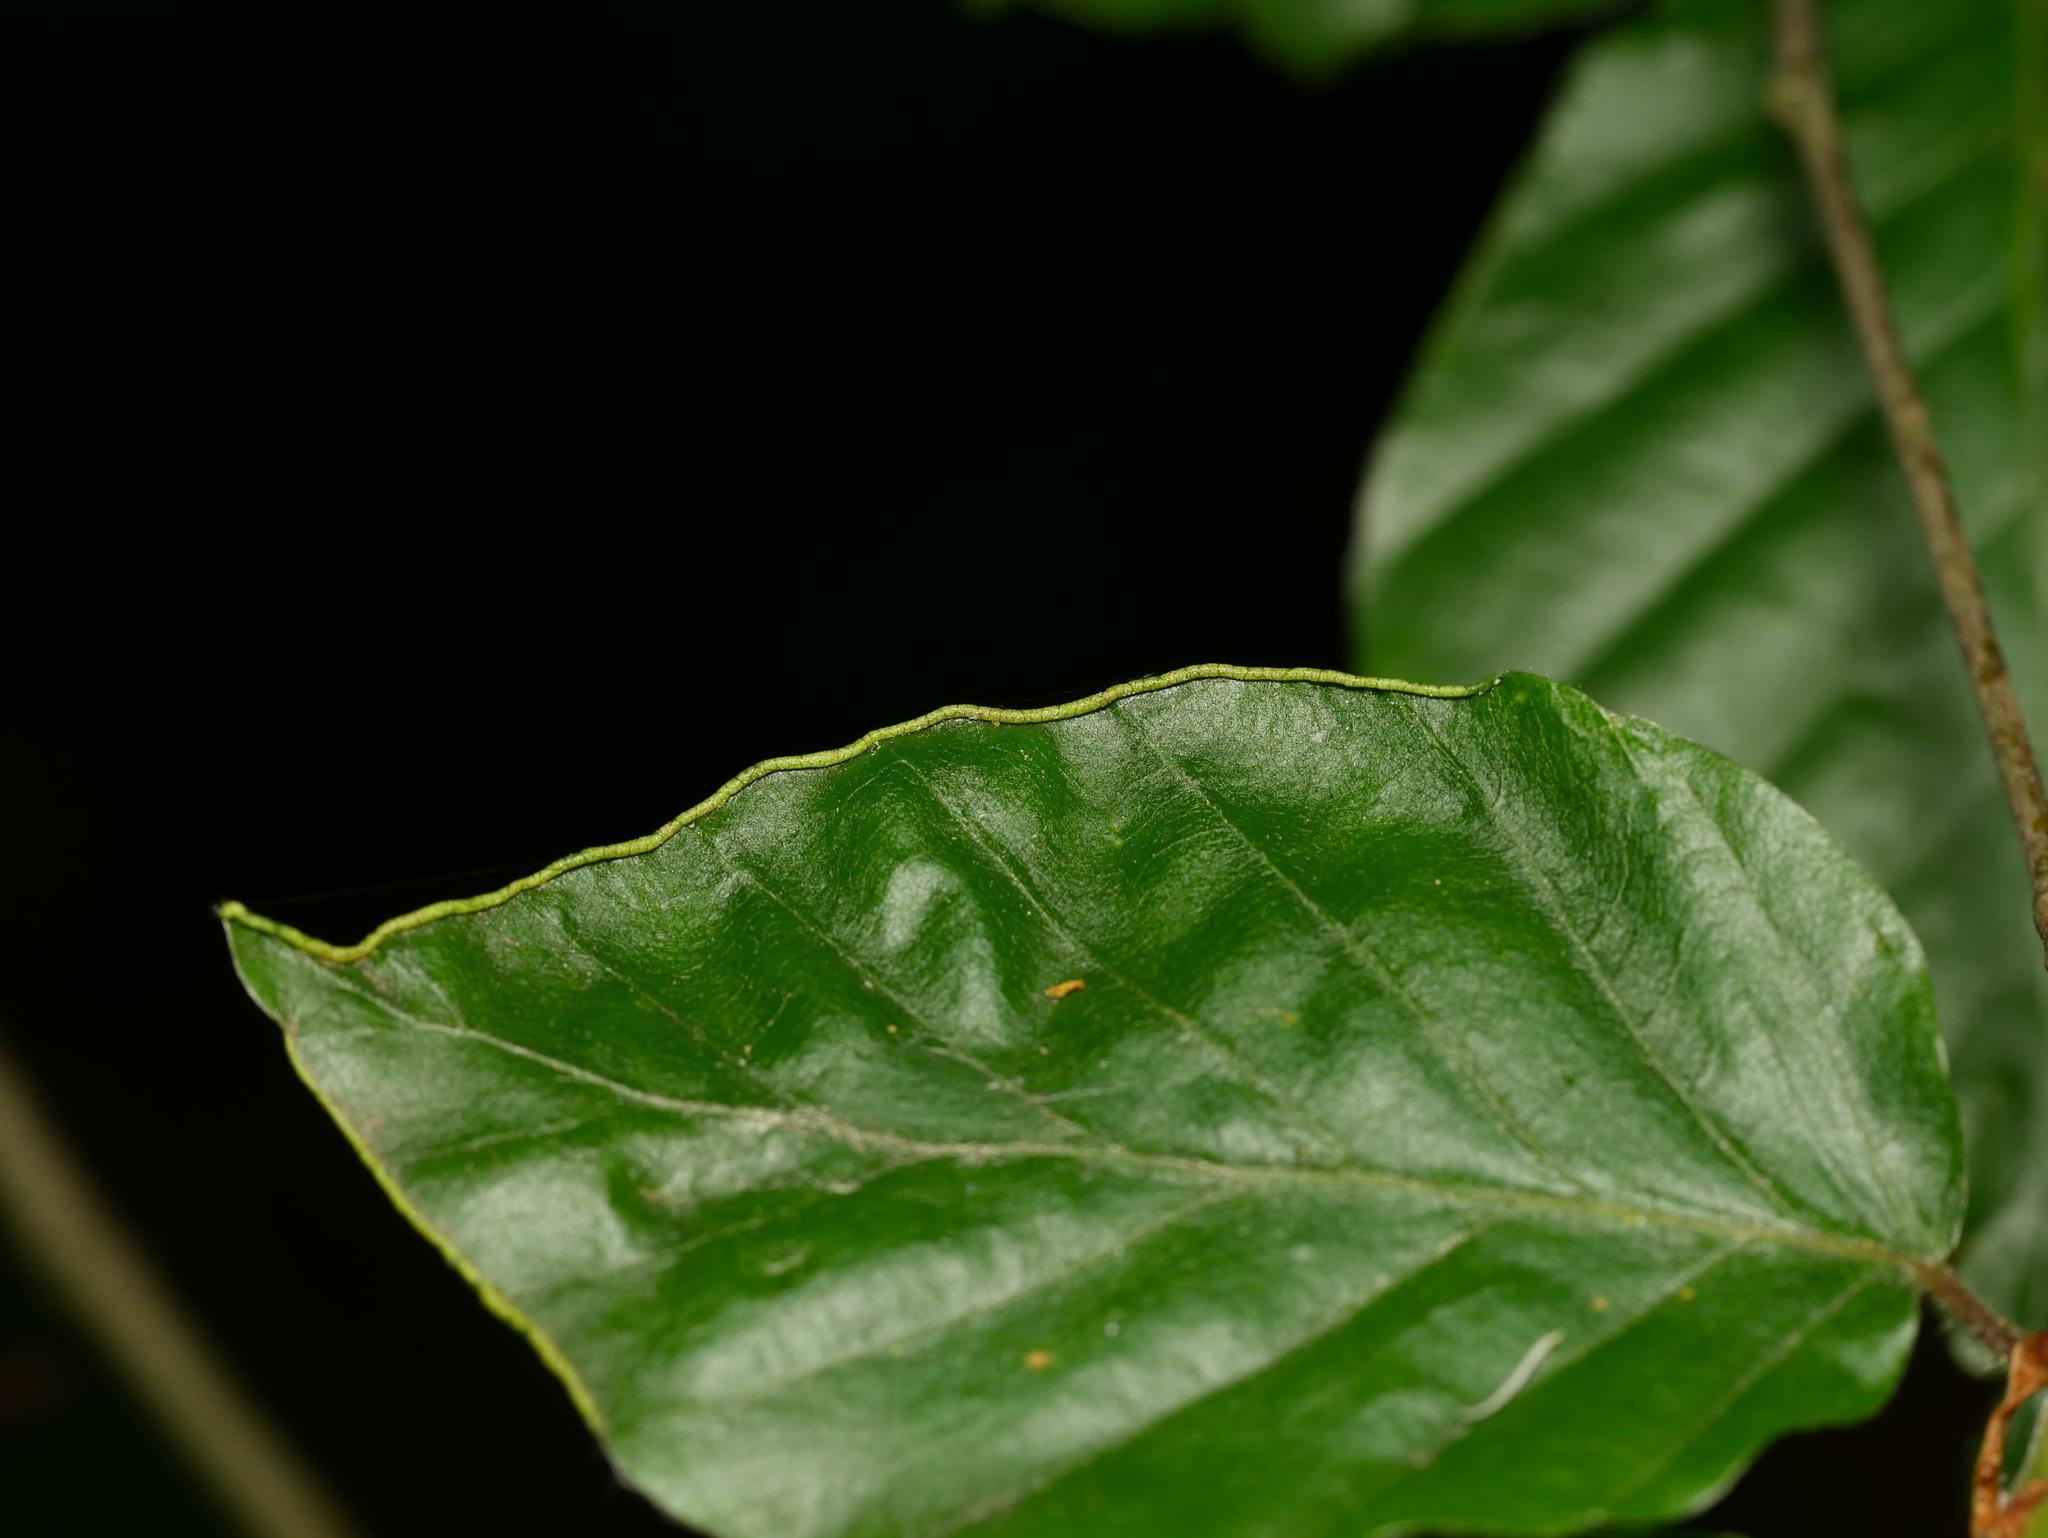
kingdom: Animalia
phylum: Arthropoda
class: Arachnida
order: Trombidiformes
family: Eriophyidae
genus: Acalitus
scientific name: Acalitus stenaspis
